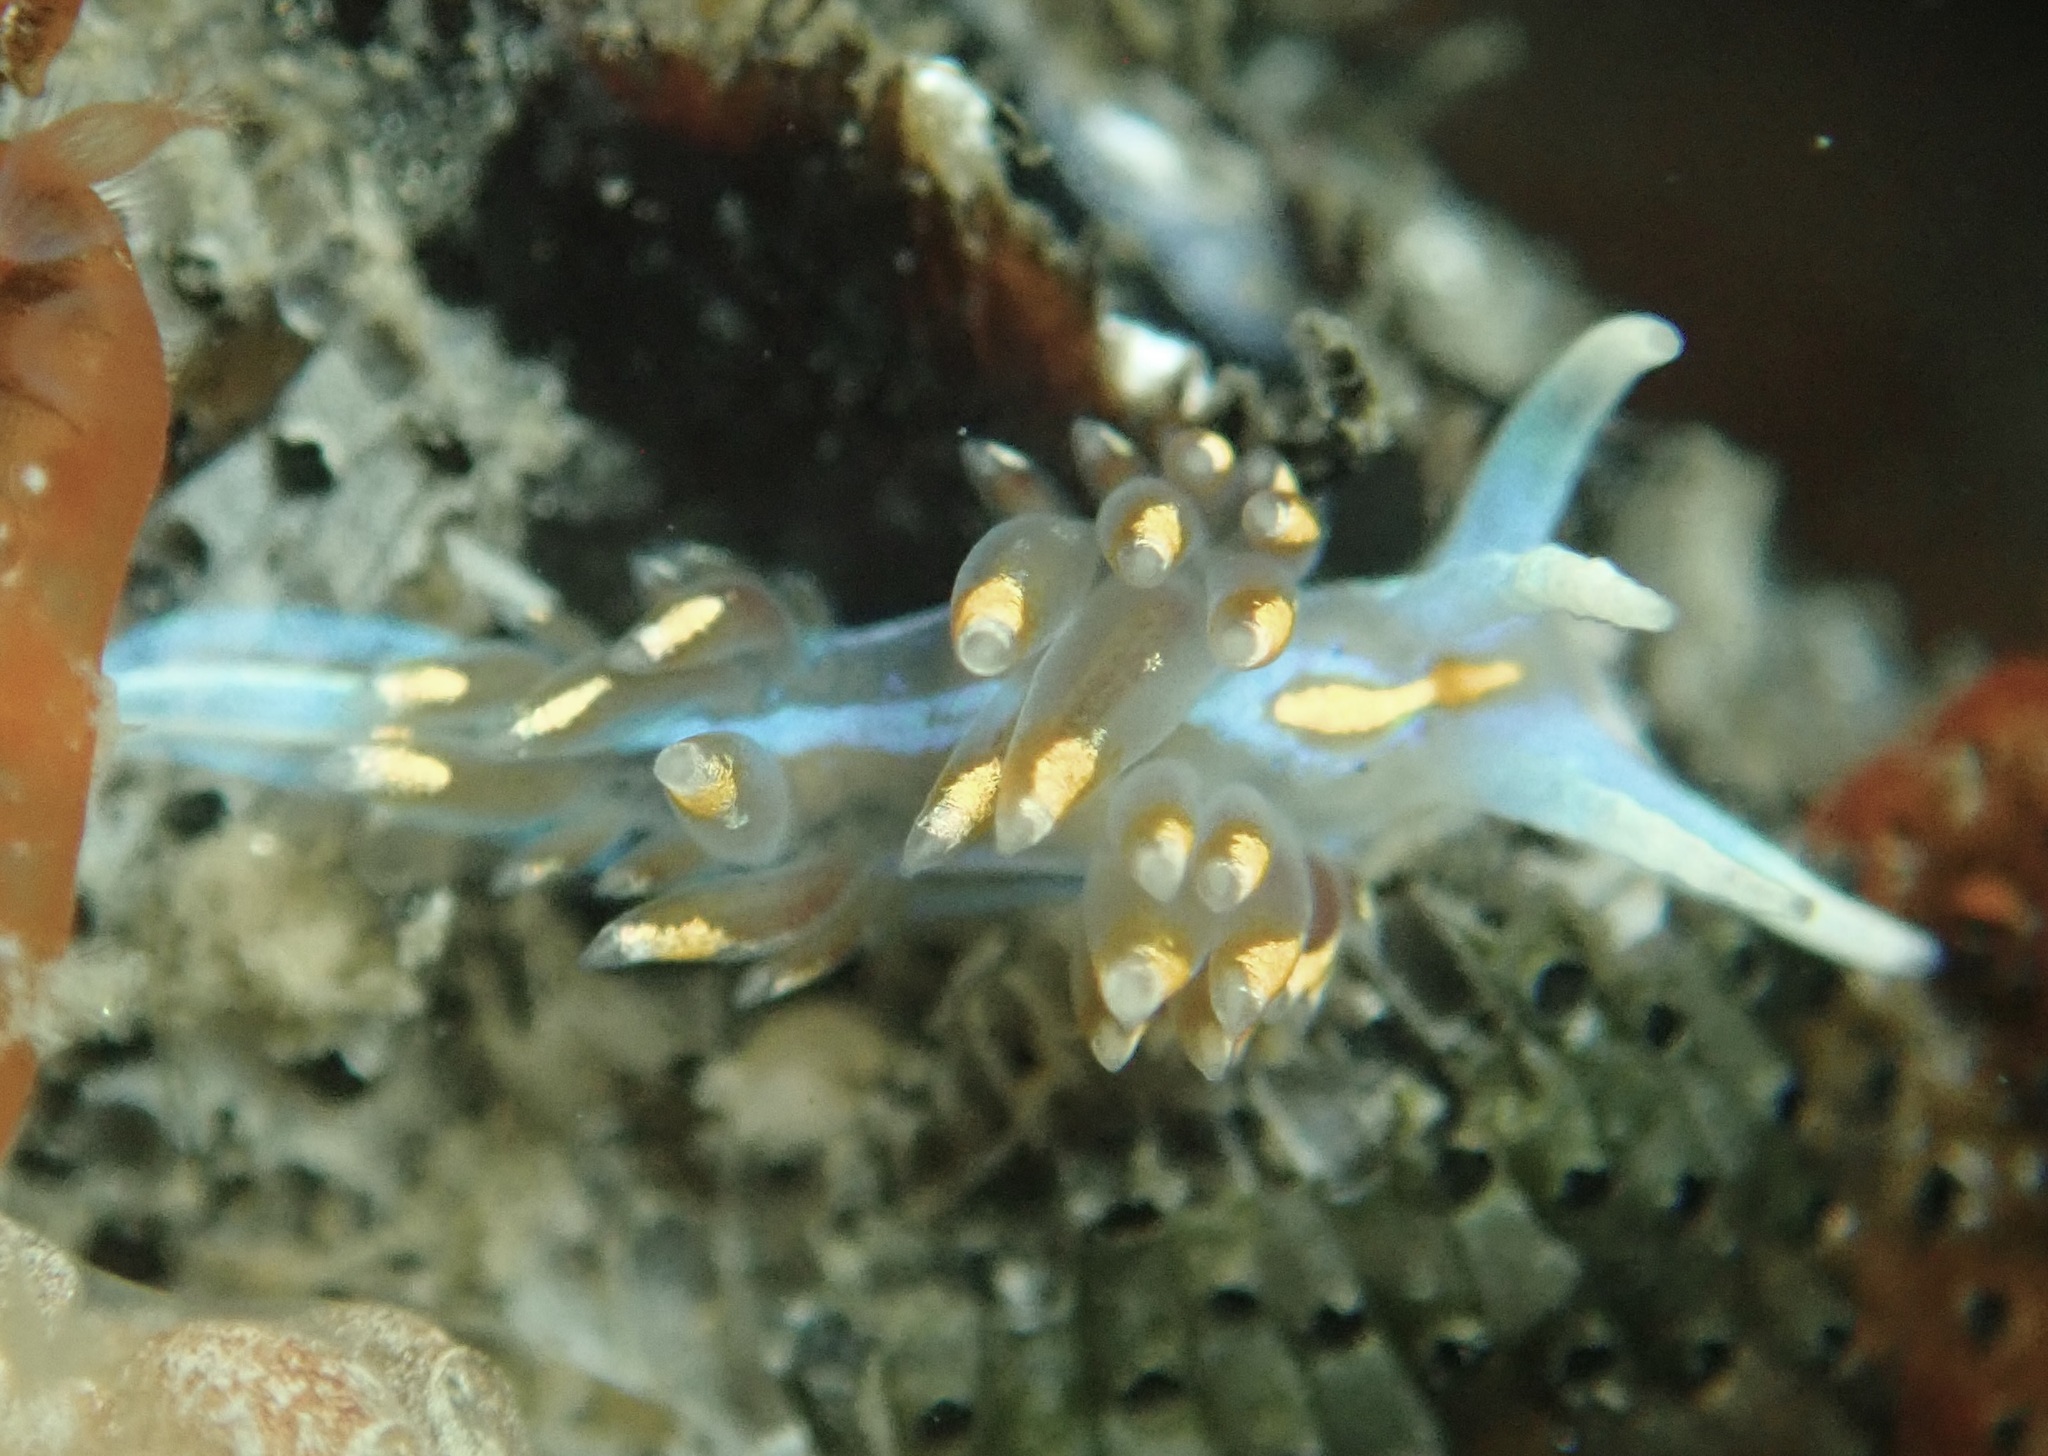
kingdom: Animalia
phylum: Mollusca
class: Gastropoda
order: Nudibranchia
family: Myrrhinidae
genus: Hermissenda
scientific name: Hermissenda opalescens
